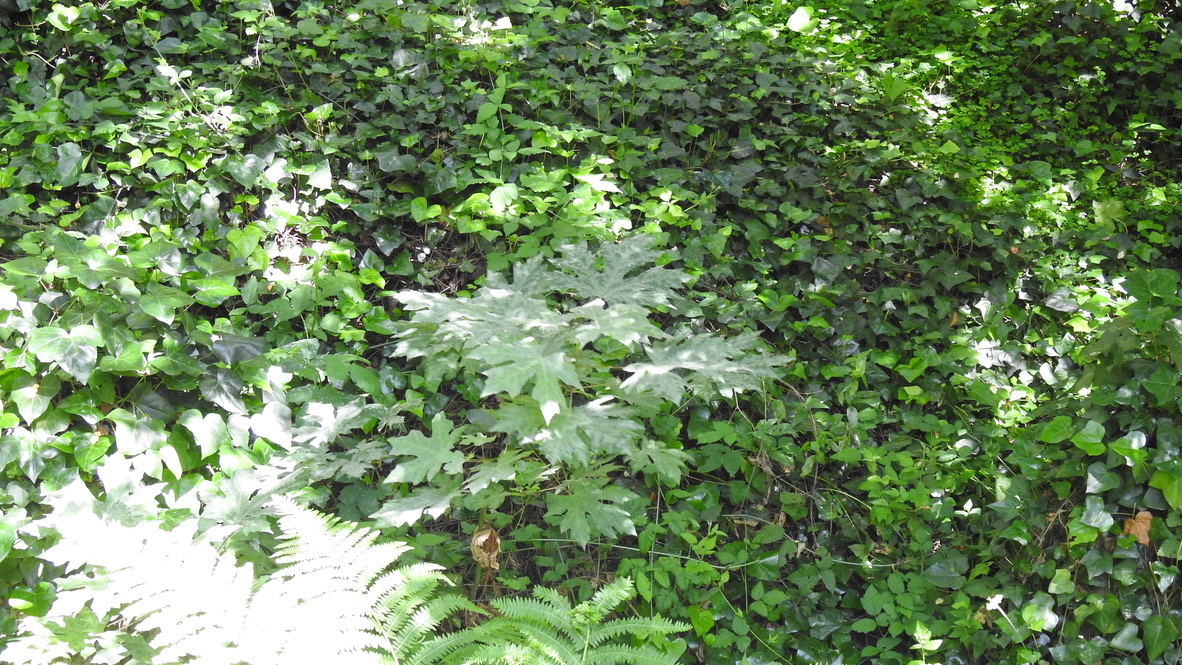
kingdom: Plantae
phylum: Tracheophyta
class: Magnoliopsida
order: Sapindales
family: Sapindaceae
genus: Acer
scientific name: Acer macrophyllum
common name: Oregon maple
